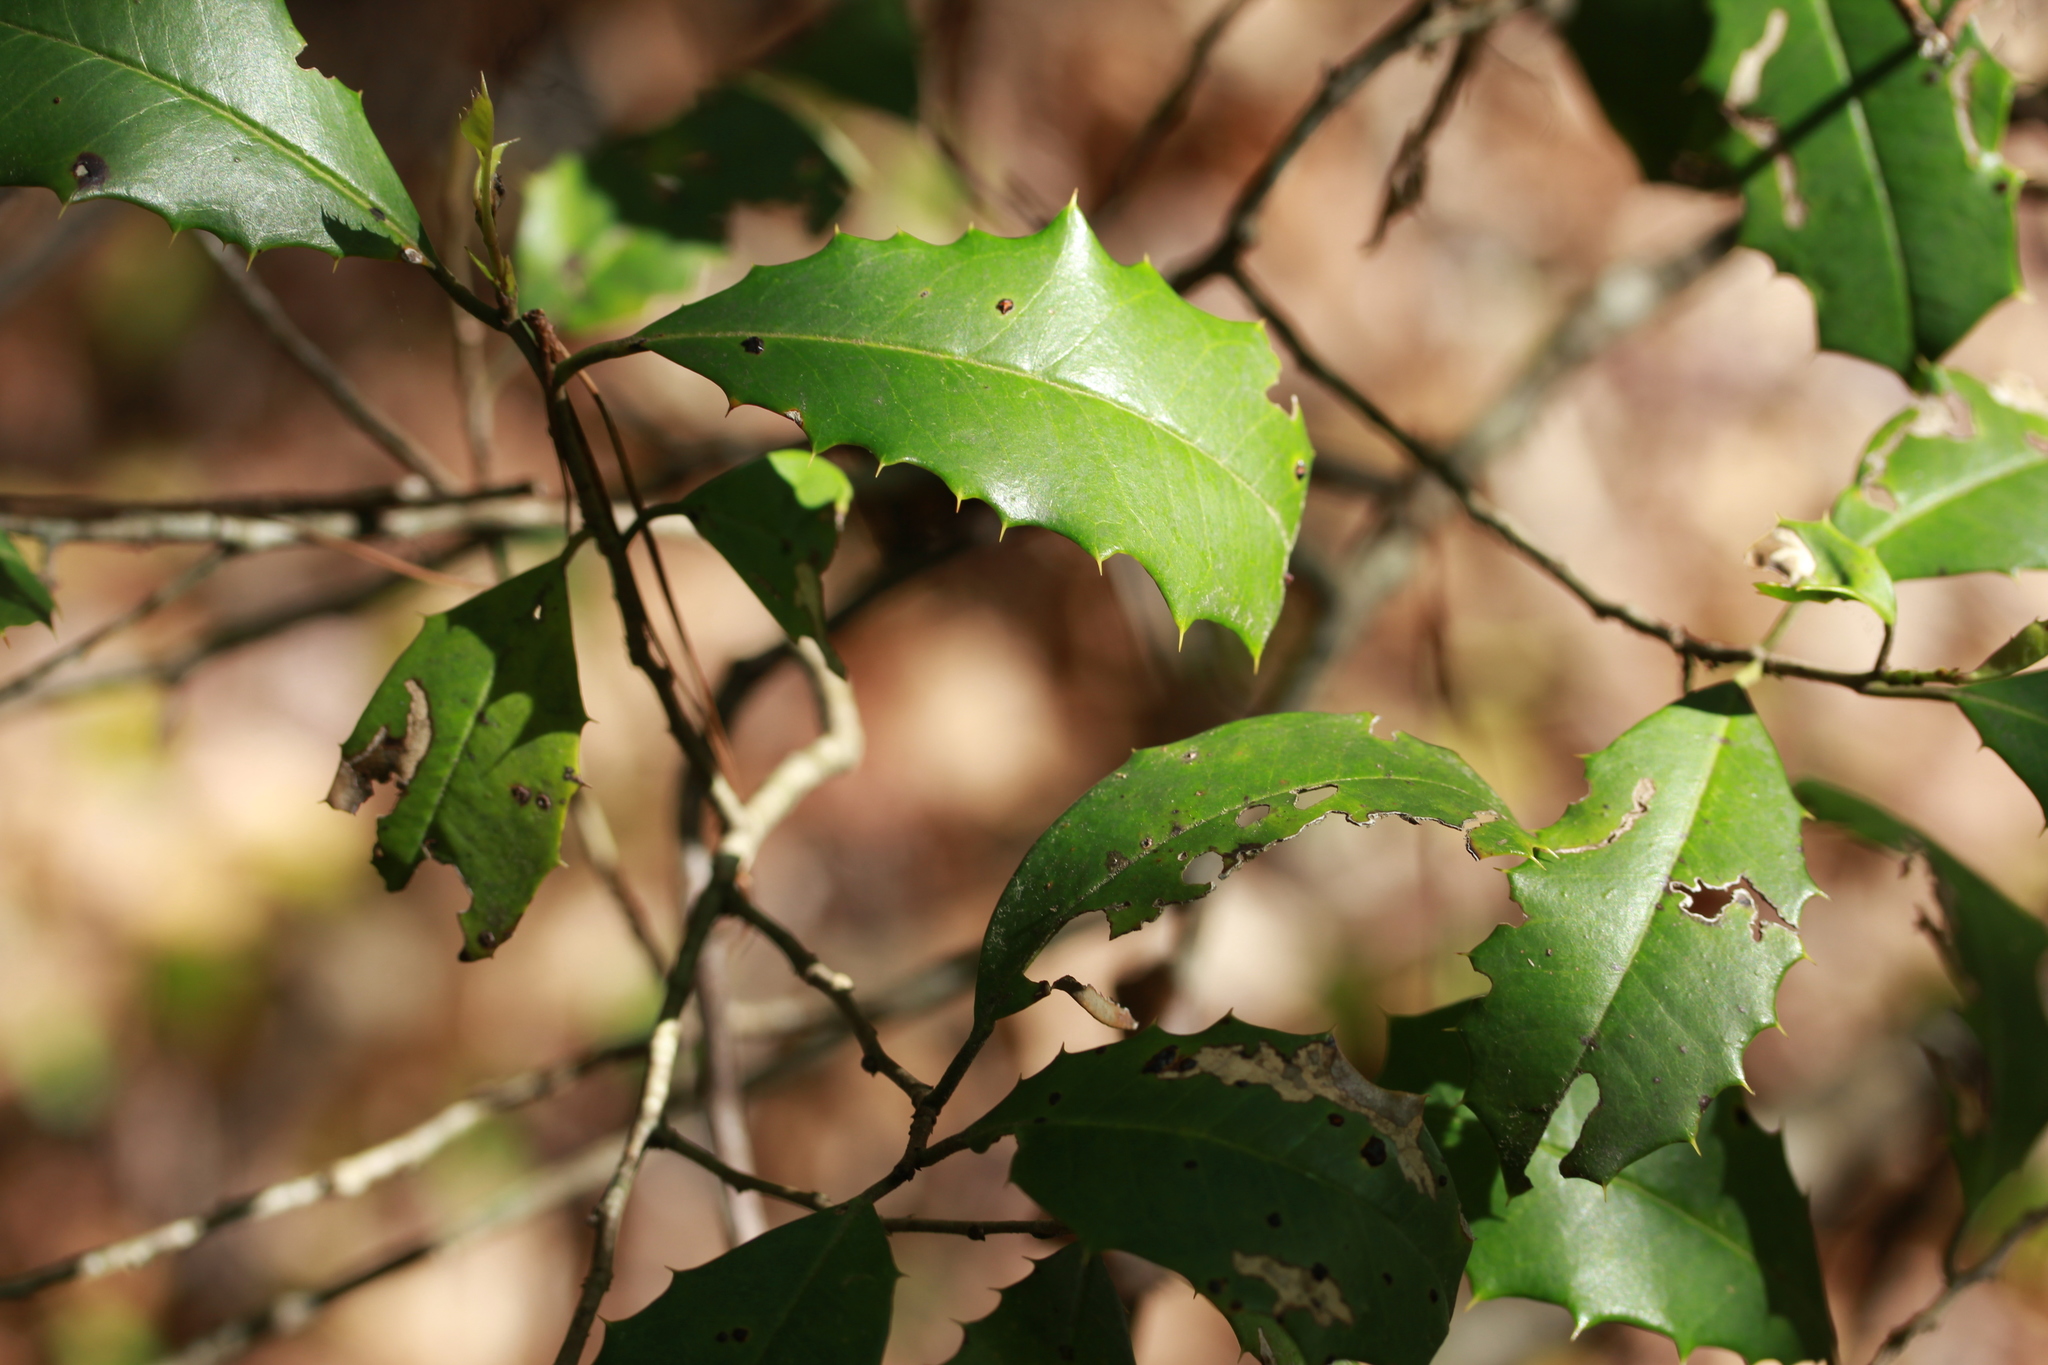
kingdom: Plantae
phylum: Tracheophyta
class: Magnoliopsida
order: Aquifoliales
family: Aquifoliaceae
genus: Ilex
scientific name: Ilex opaca
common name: American holly
